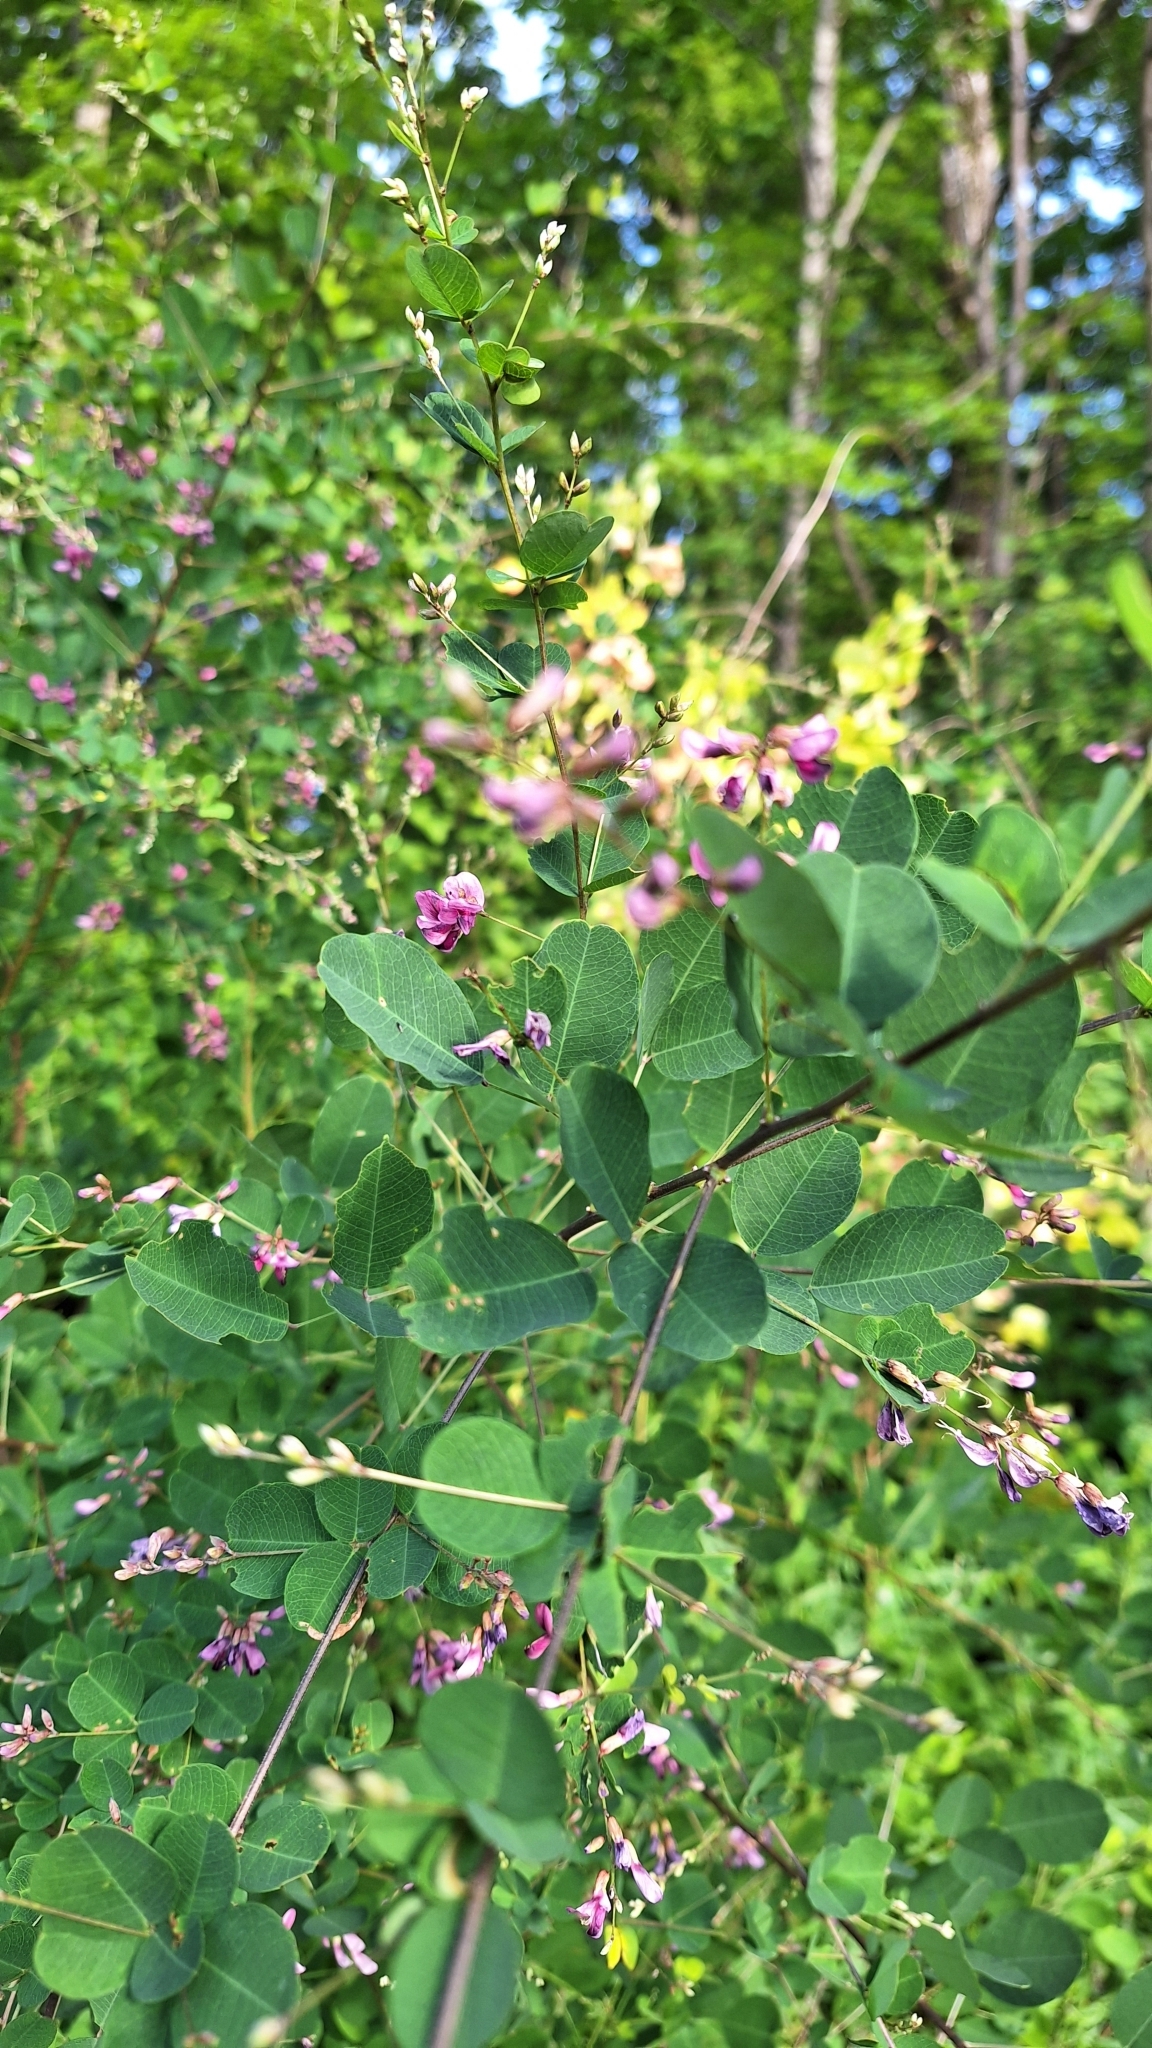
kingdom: Plantae
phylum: Tracheophyta
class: Magnoliopsida
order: Fabales
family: Fabaceae
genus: Lespedeza
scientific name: Lespedeza bicolor
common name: Shrub lespedeza
